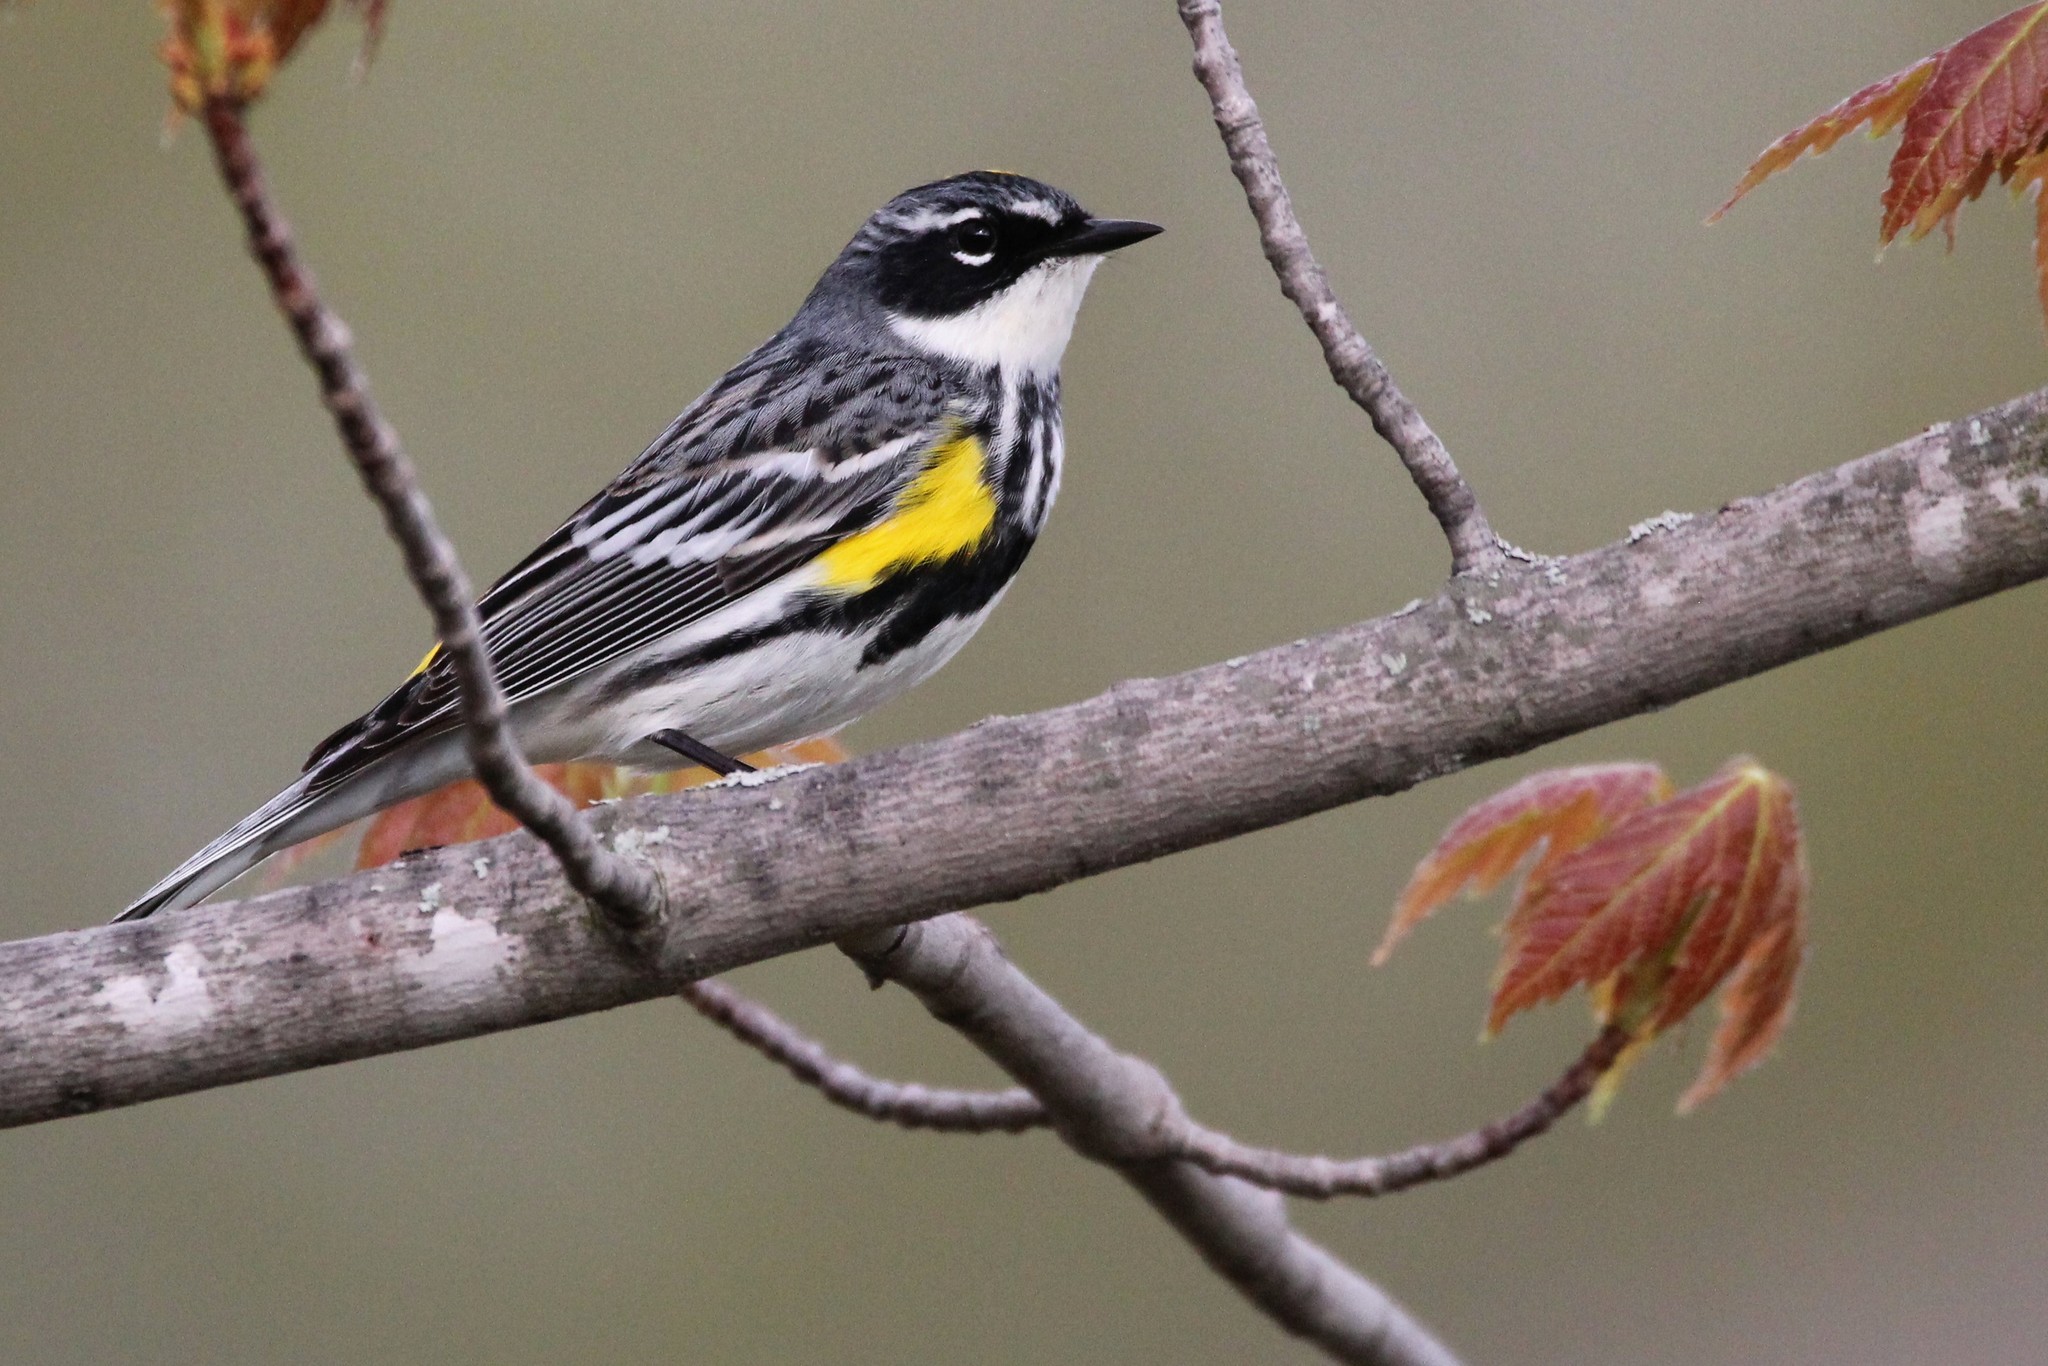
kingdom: Animalia
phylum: Chordata
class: Aves
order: Passeriformes
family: Parulidae
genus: Setophaga
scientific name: Setophaga coronata
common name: Myrtle warbler
